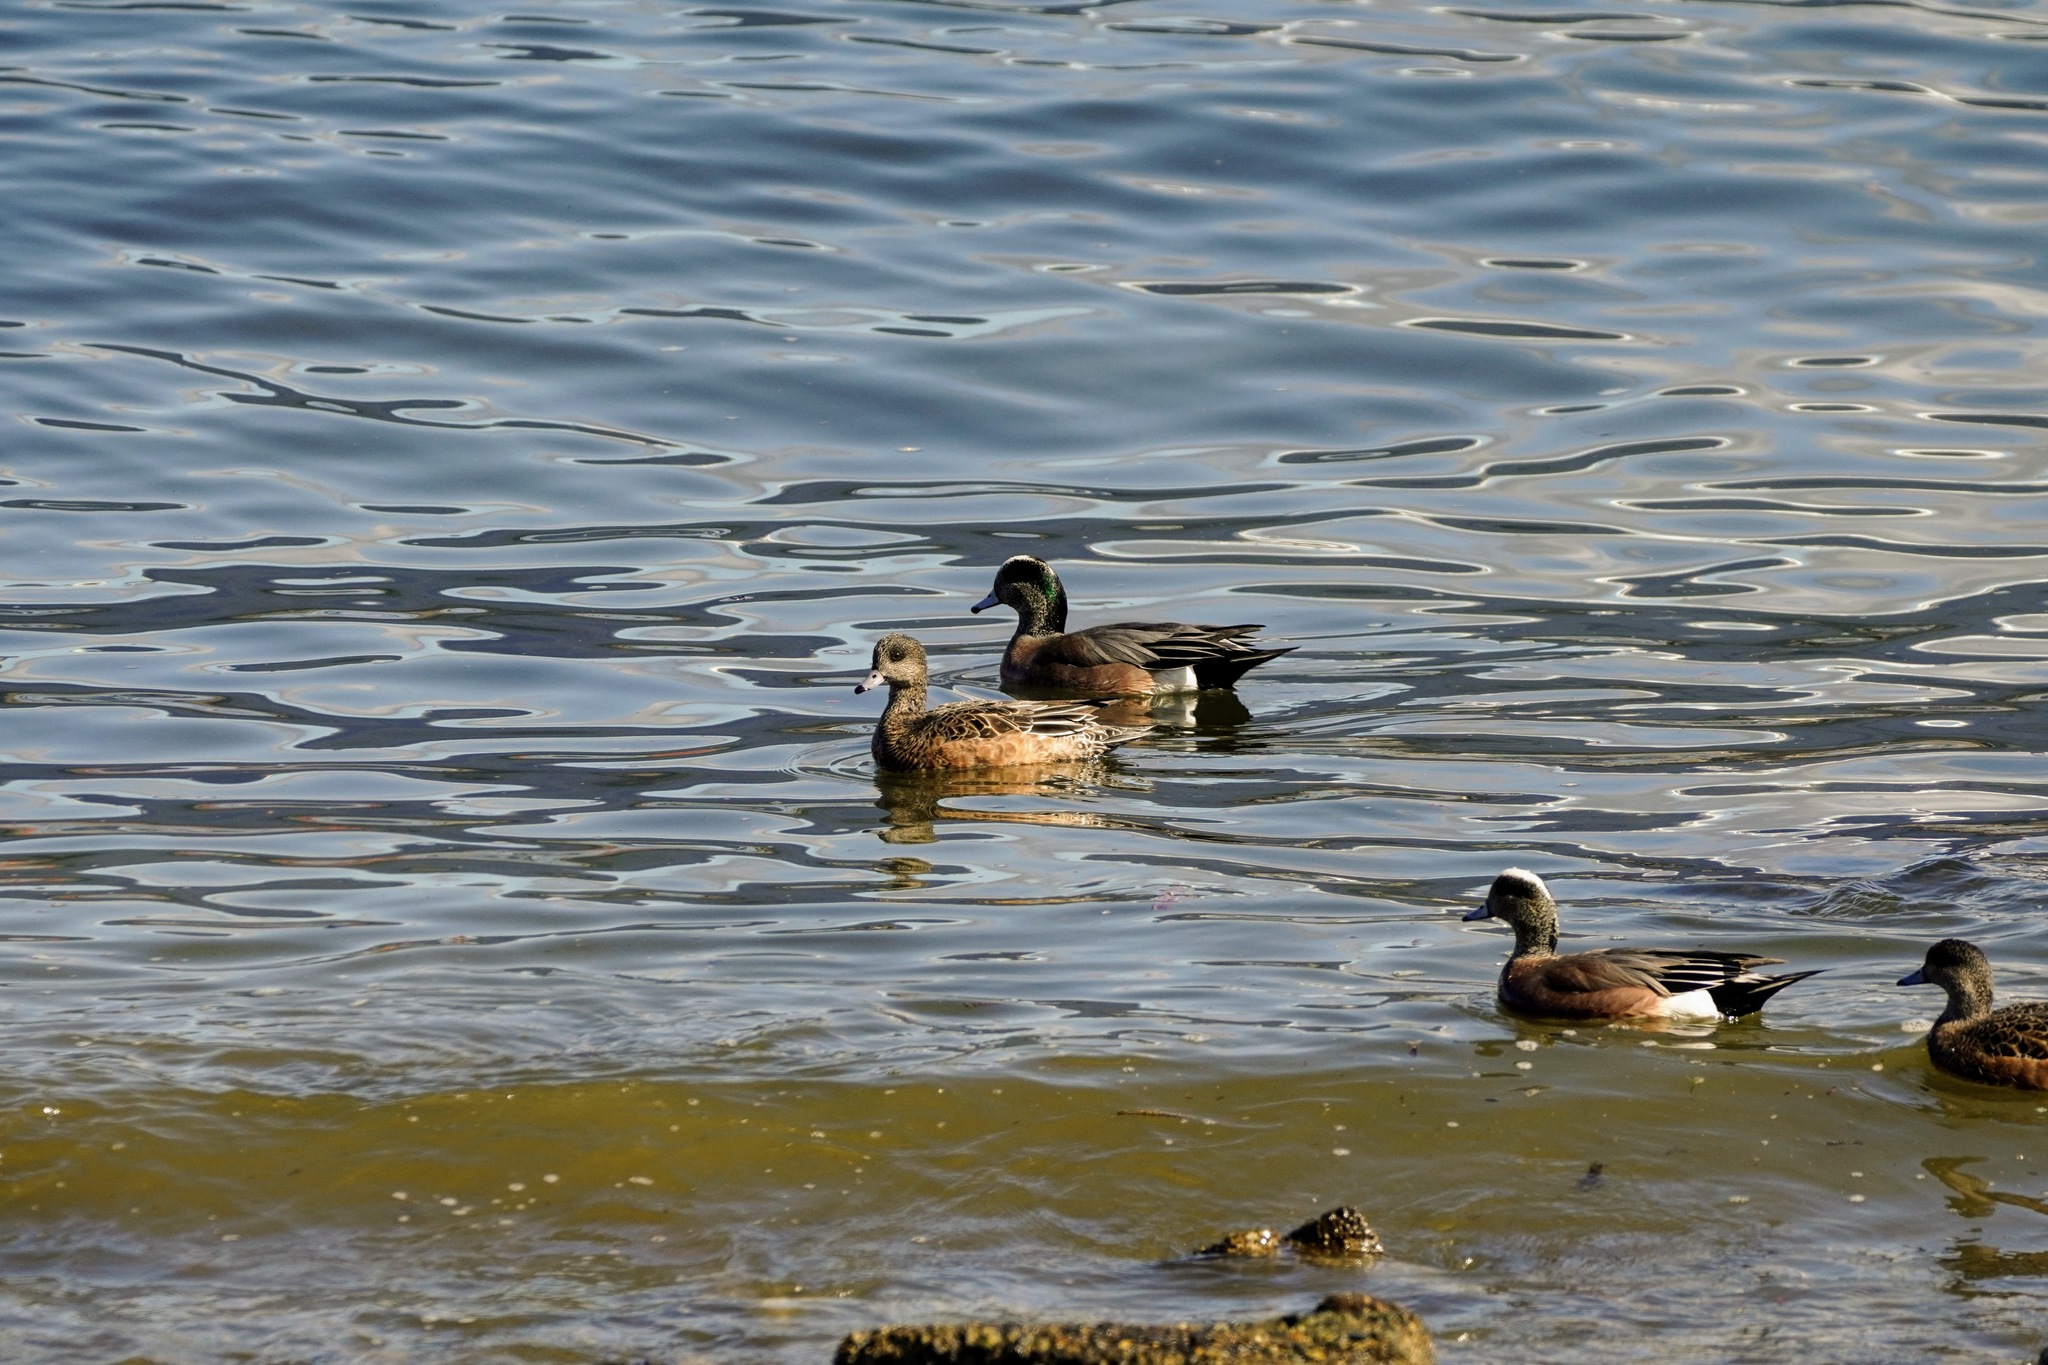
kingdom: Animalia
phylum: Chordata
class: Aves
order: Anseriformes
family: Anatidae
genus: Mareca
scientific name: Mareca americana
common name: American wigeon
